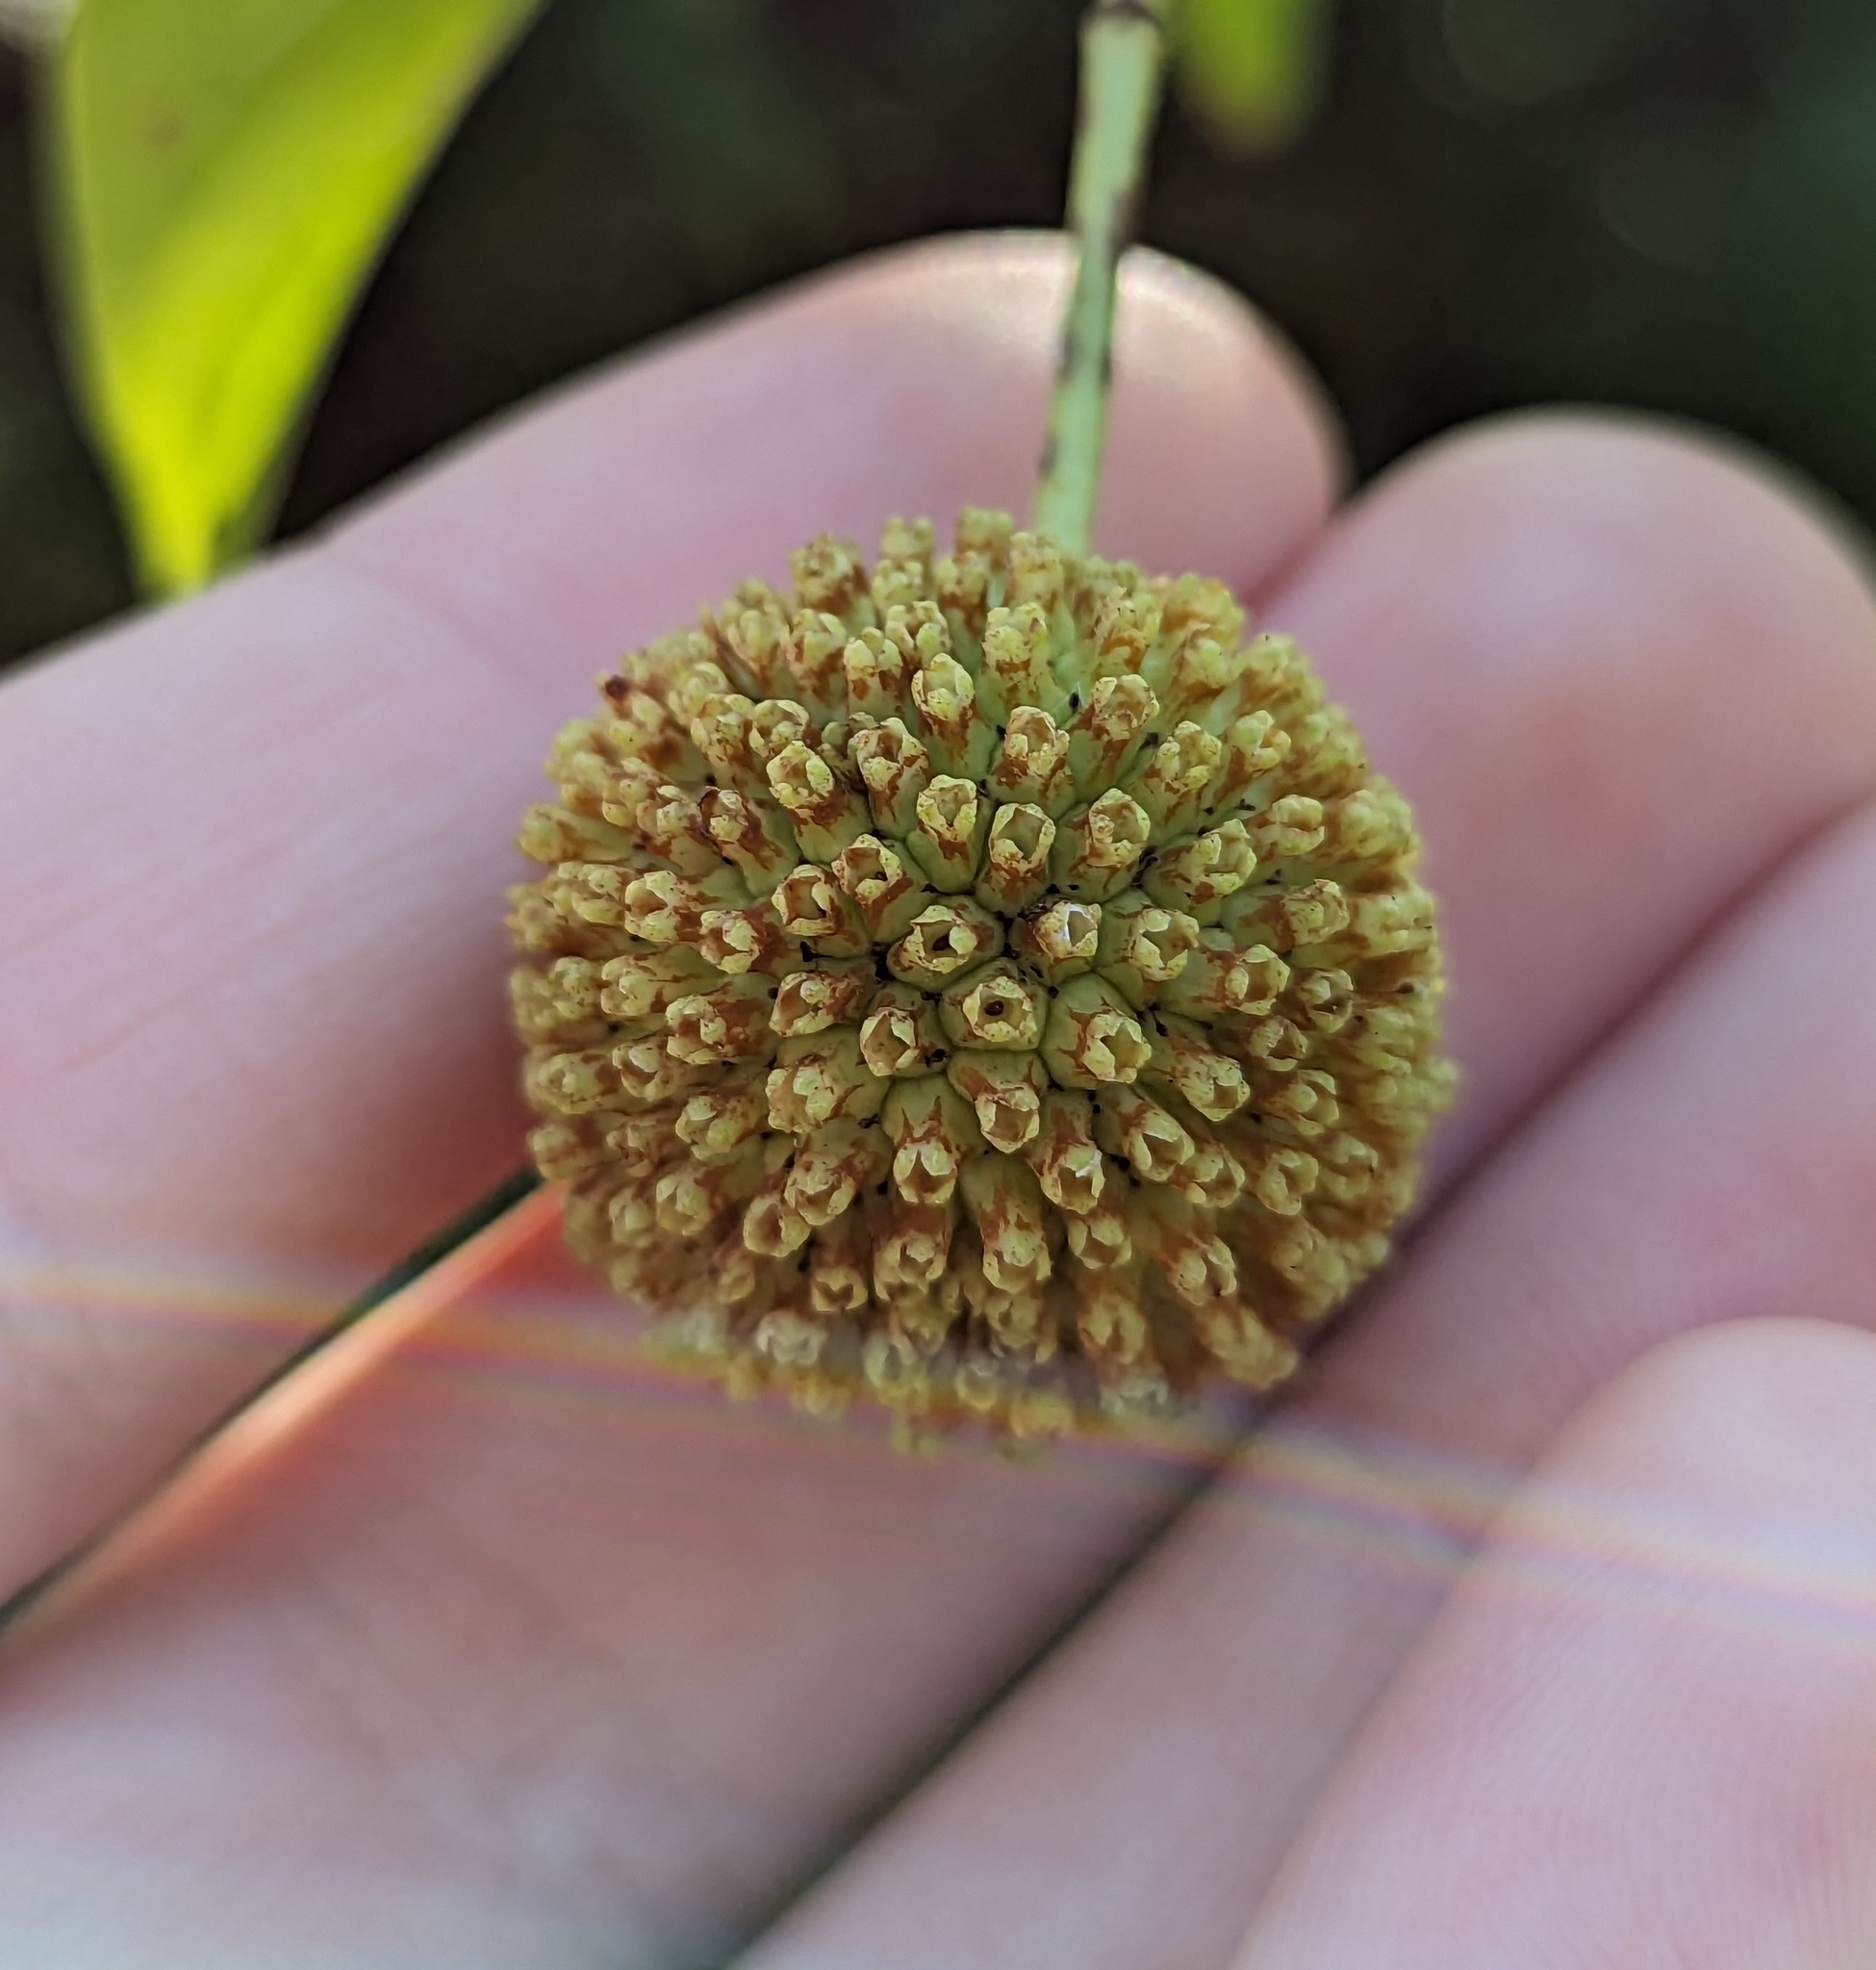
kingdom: Plantae
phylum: Tracheophyta
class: Magnoliopsida
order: Gentianales
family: Rubiaceae
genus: Cephalanthus
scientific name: Cephalanthus occidentalis
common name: Button-willow
